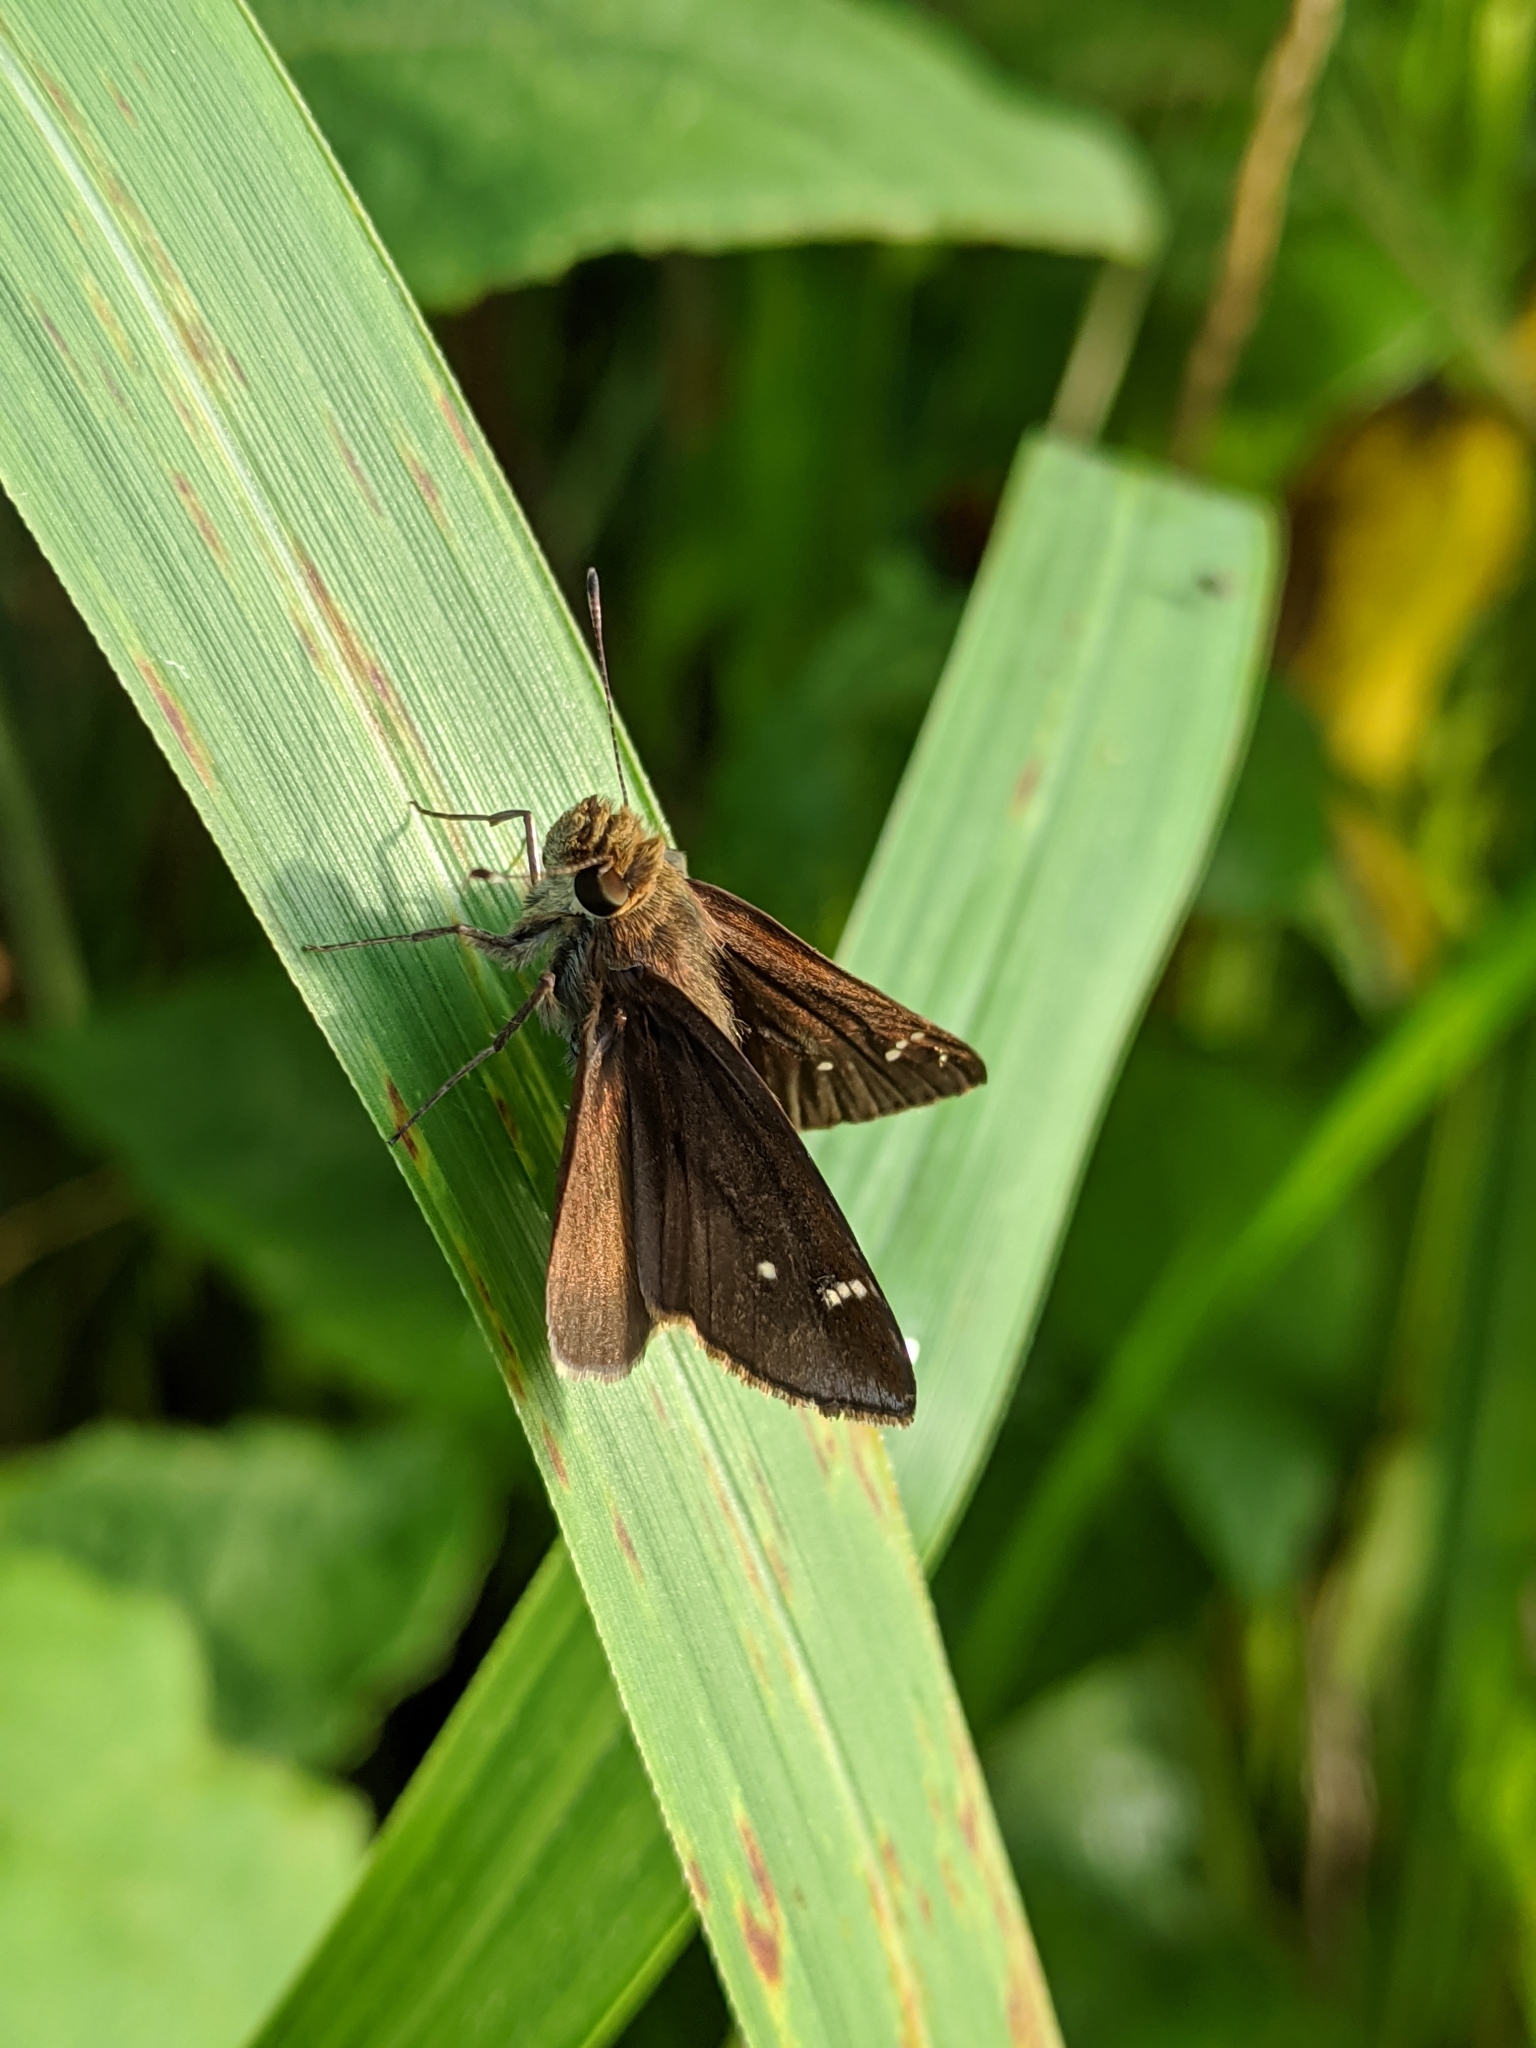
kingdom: Animalia
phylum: Arthropoda
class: Insecta
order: Lepidoptera
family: Hesperiidae
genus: Lerema
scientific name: Lerema accius
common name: Clouded skipper
